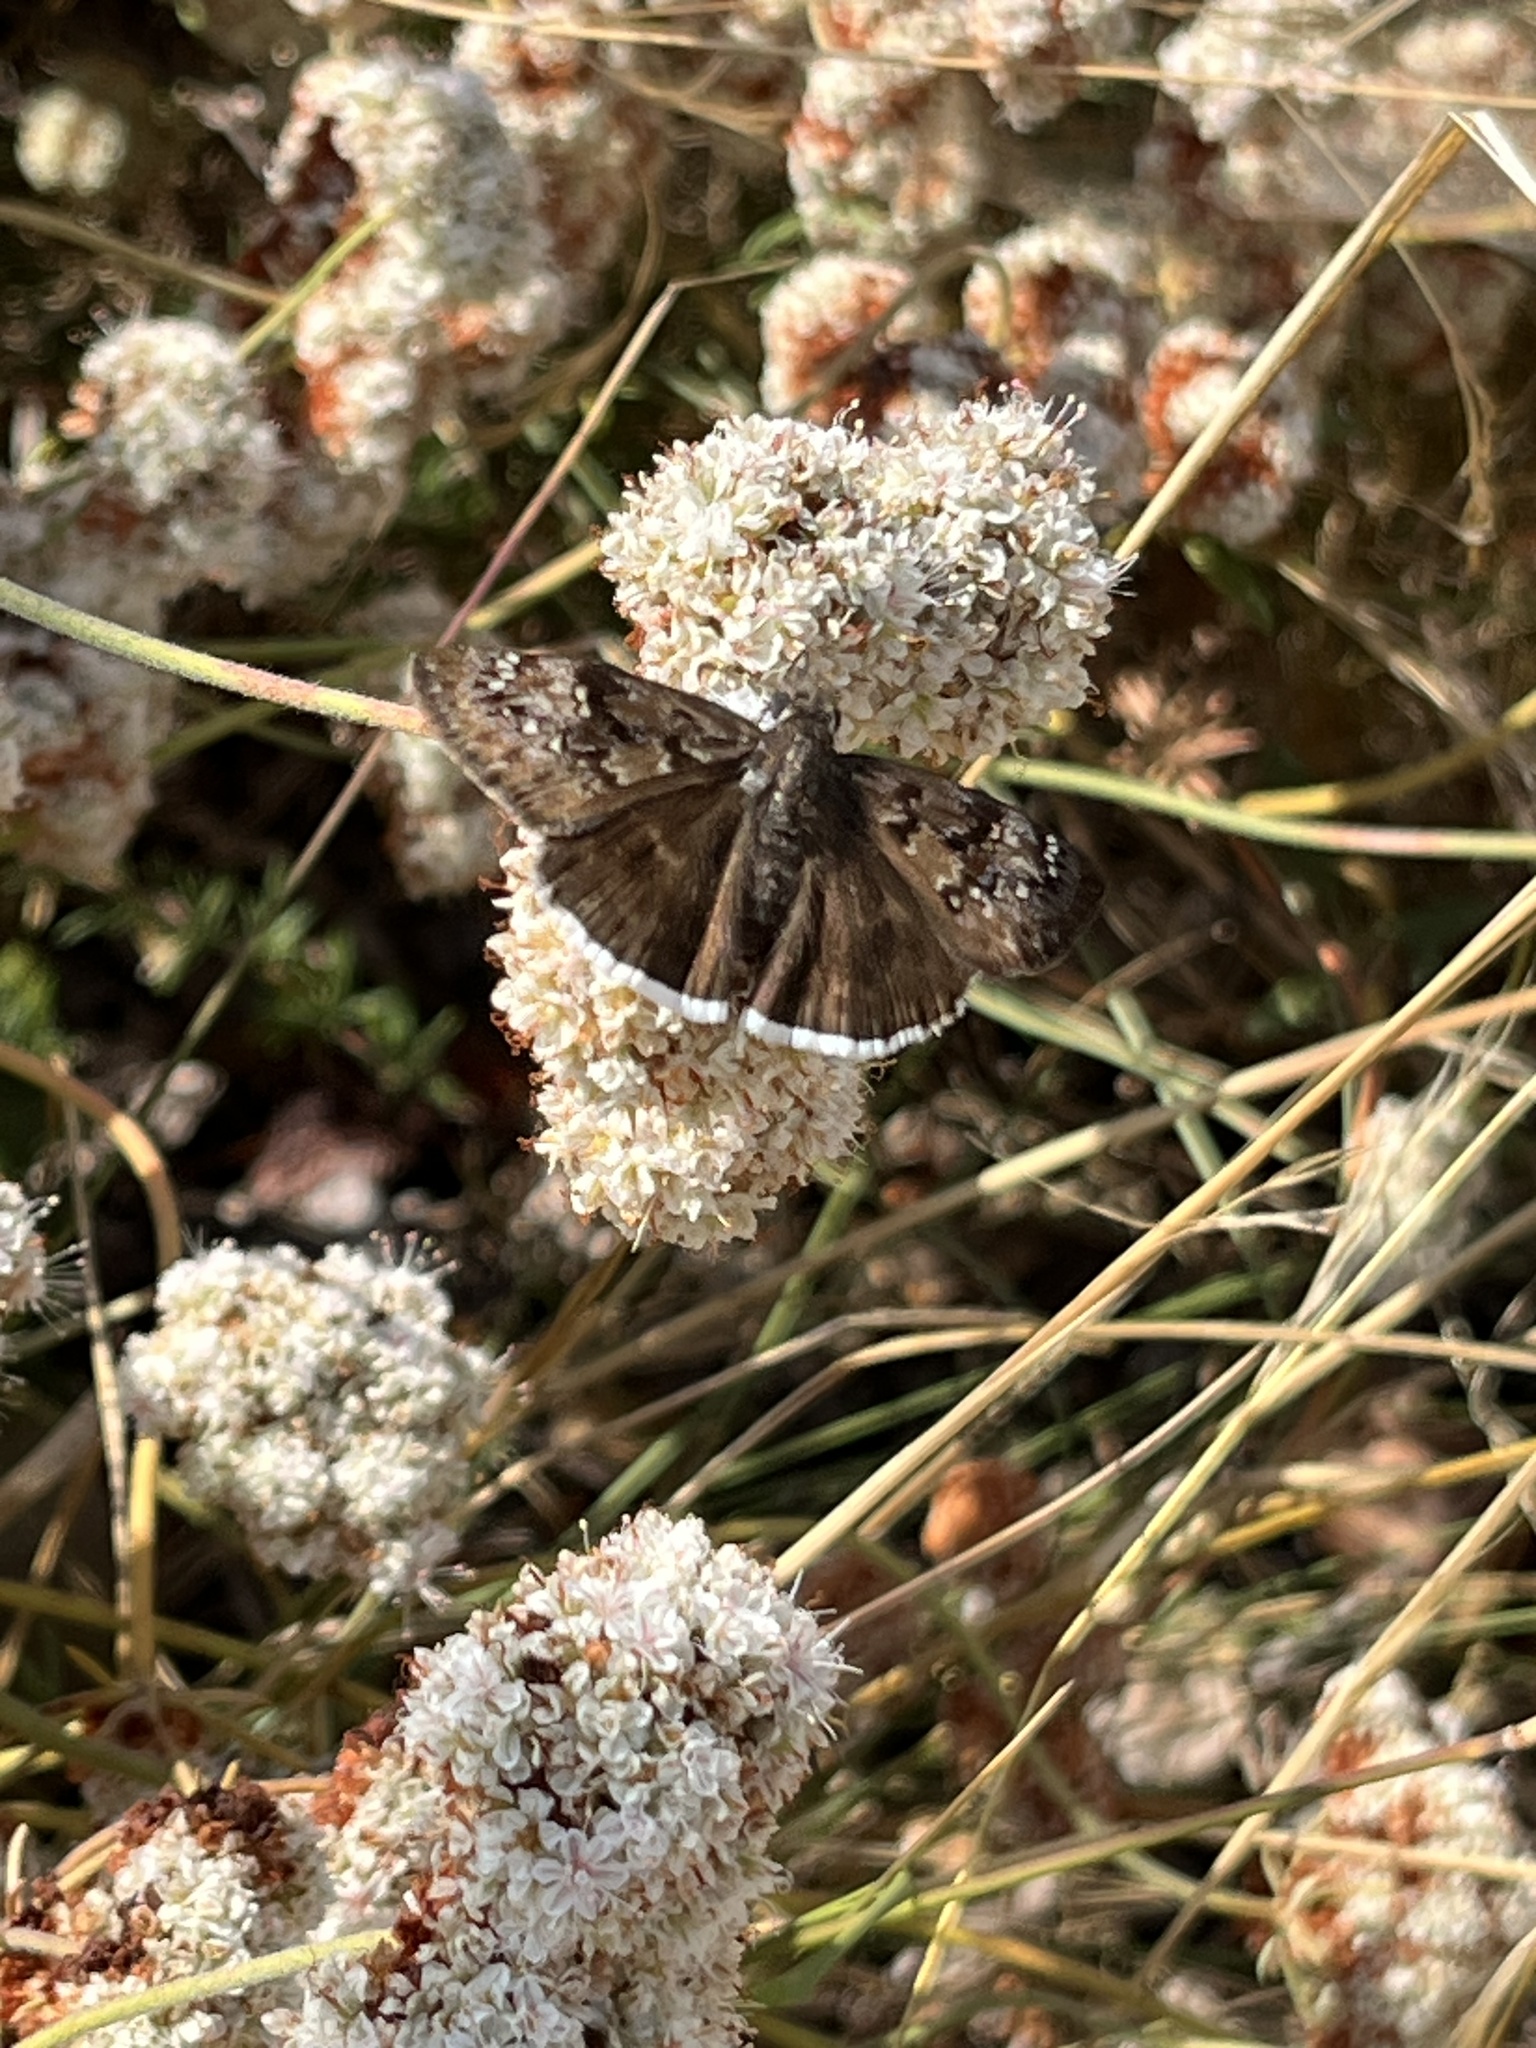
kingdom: Animalia
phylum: Arthropoda
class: Insecta
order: Lepidoptera
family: Hesperiidae
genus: Erynnis
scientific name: Erynnis tristis
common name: Mournful duskywing
